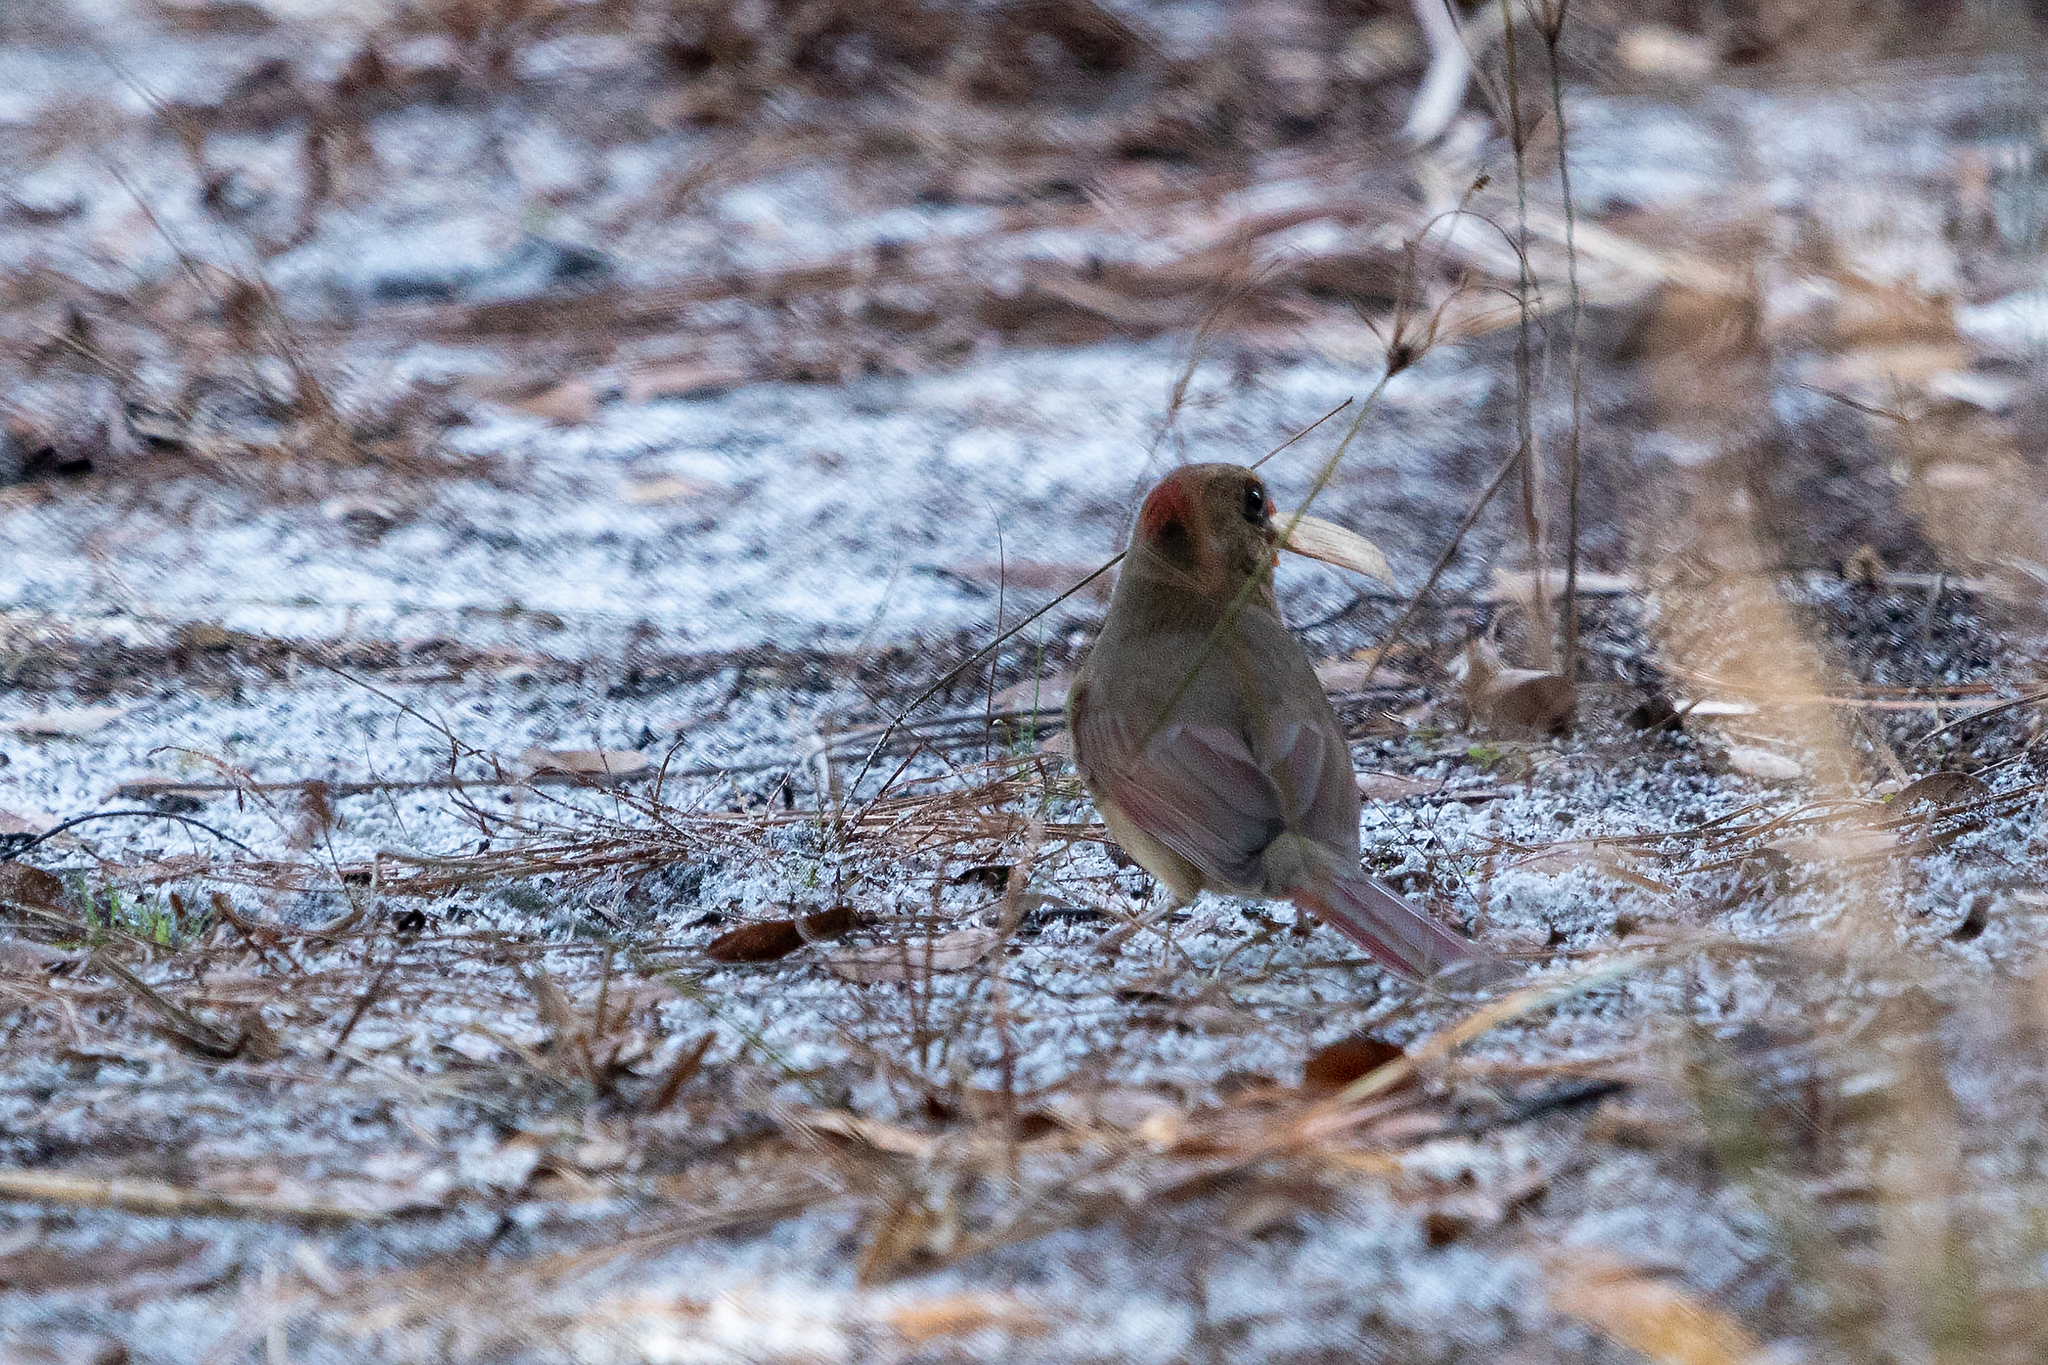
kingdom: Animalia
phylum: Chordata
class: Aves
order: Passeriformes
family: Cardinalidae
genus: Cardinalis
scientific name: Cardinalis cardinalis
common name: Northern cardinal
